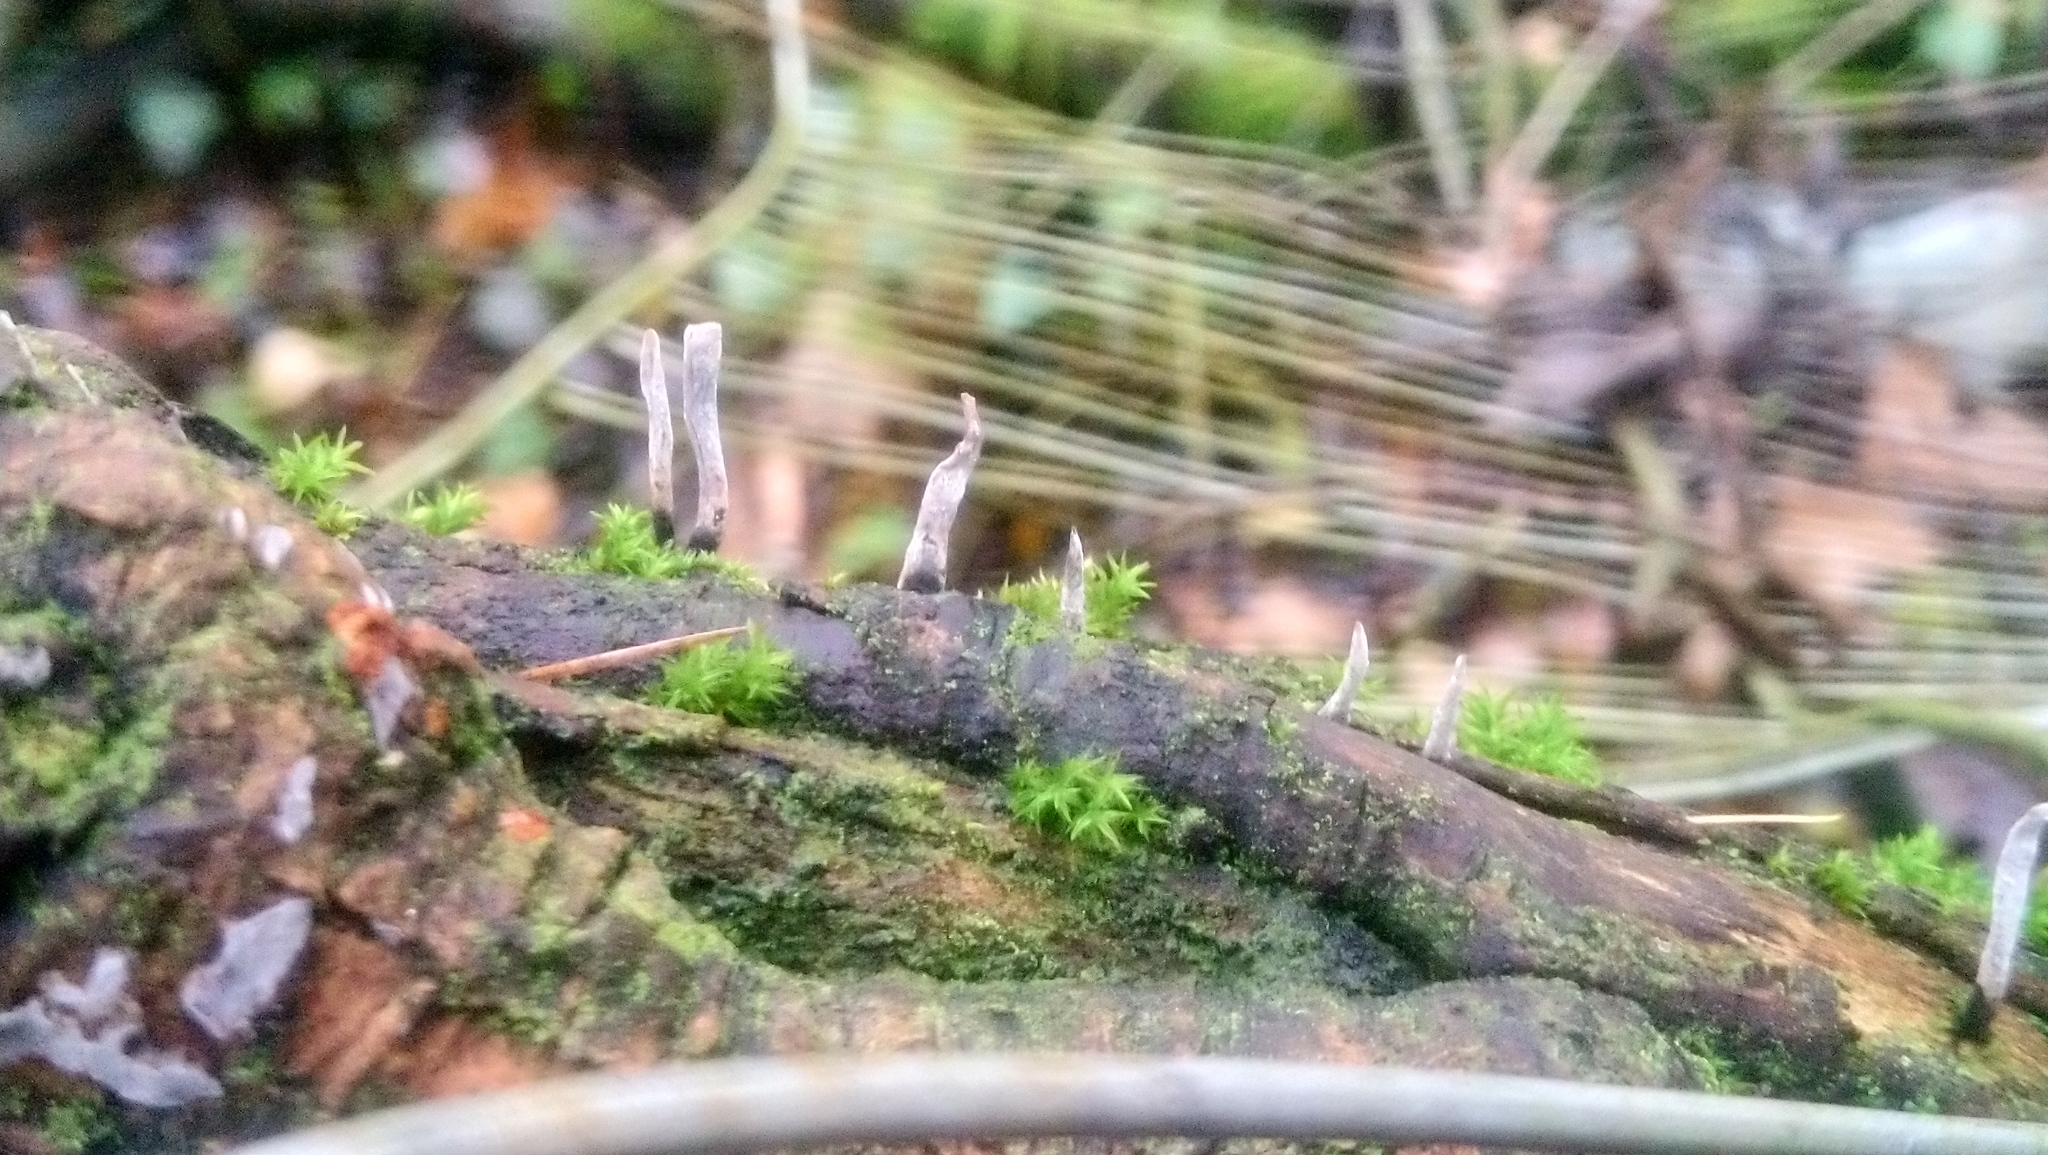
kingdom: Fungi
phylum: Ascomycota
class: Sordariomycetes
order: Xylariales
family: Xylariaceae
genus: Xylaria
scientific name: Xylaria hypoxylon
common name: Candle-snuff fungus
